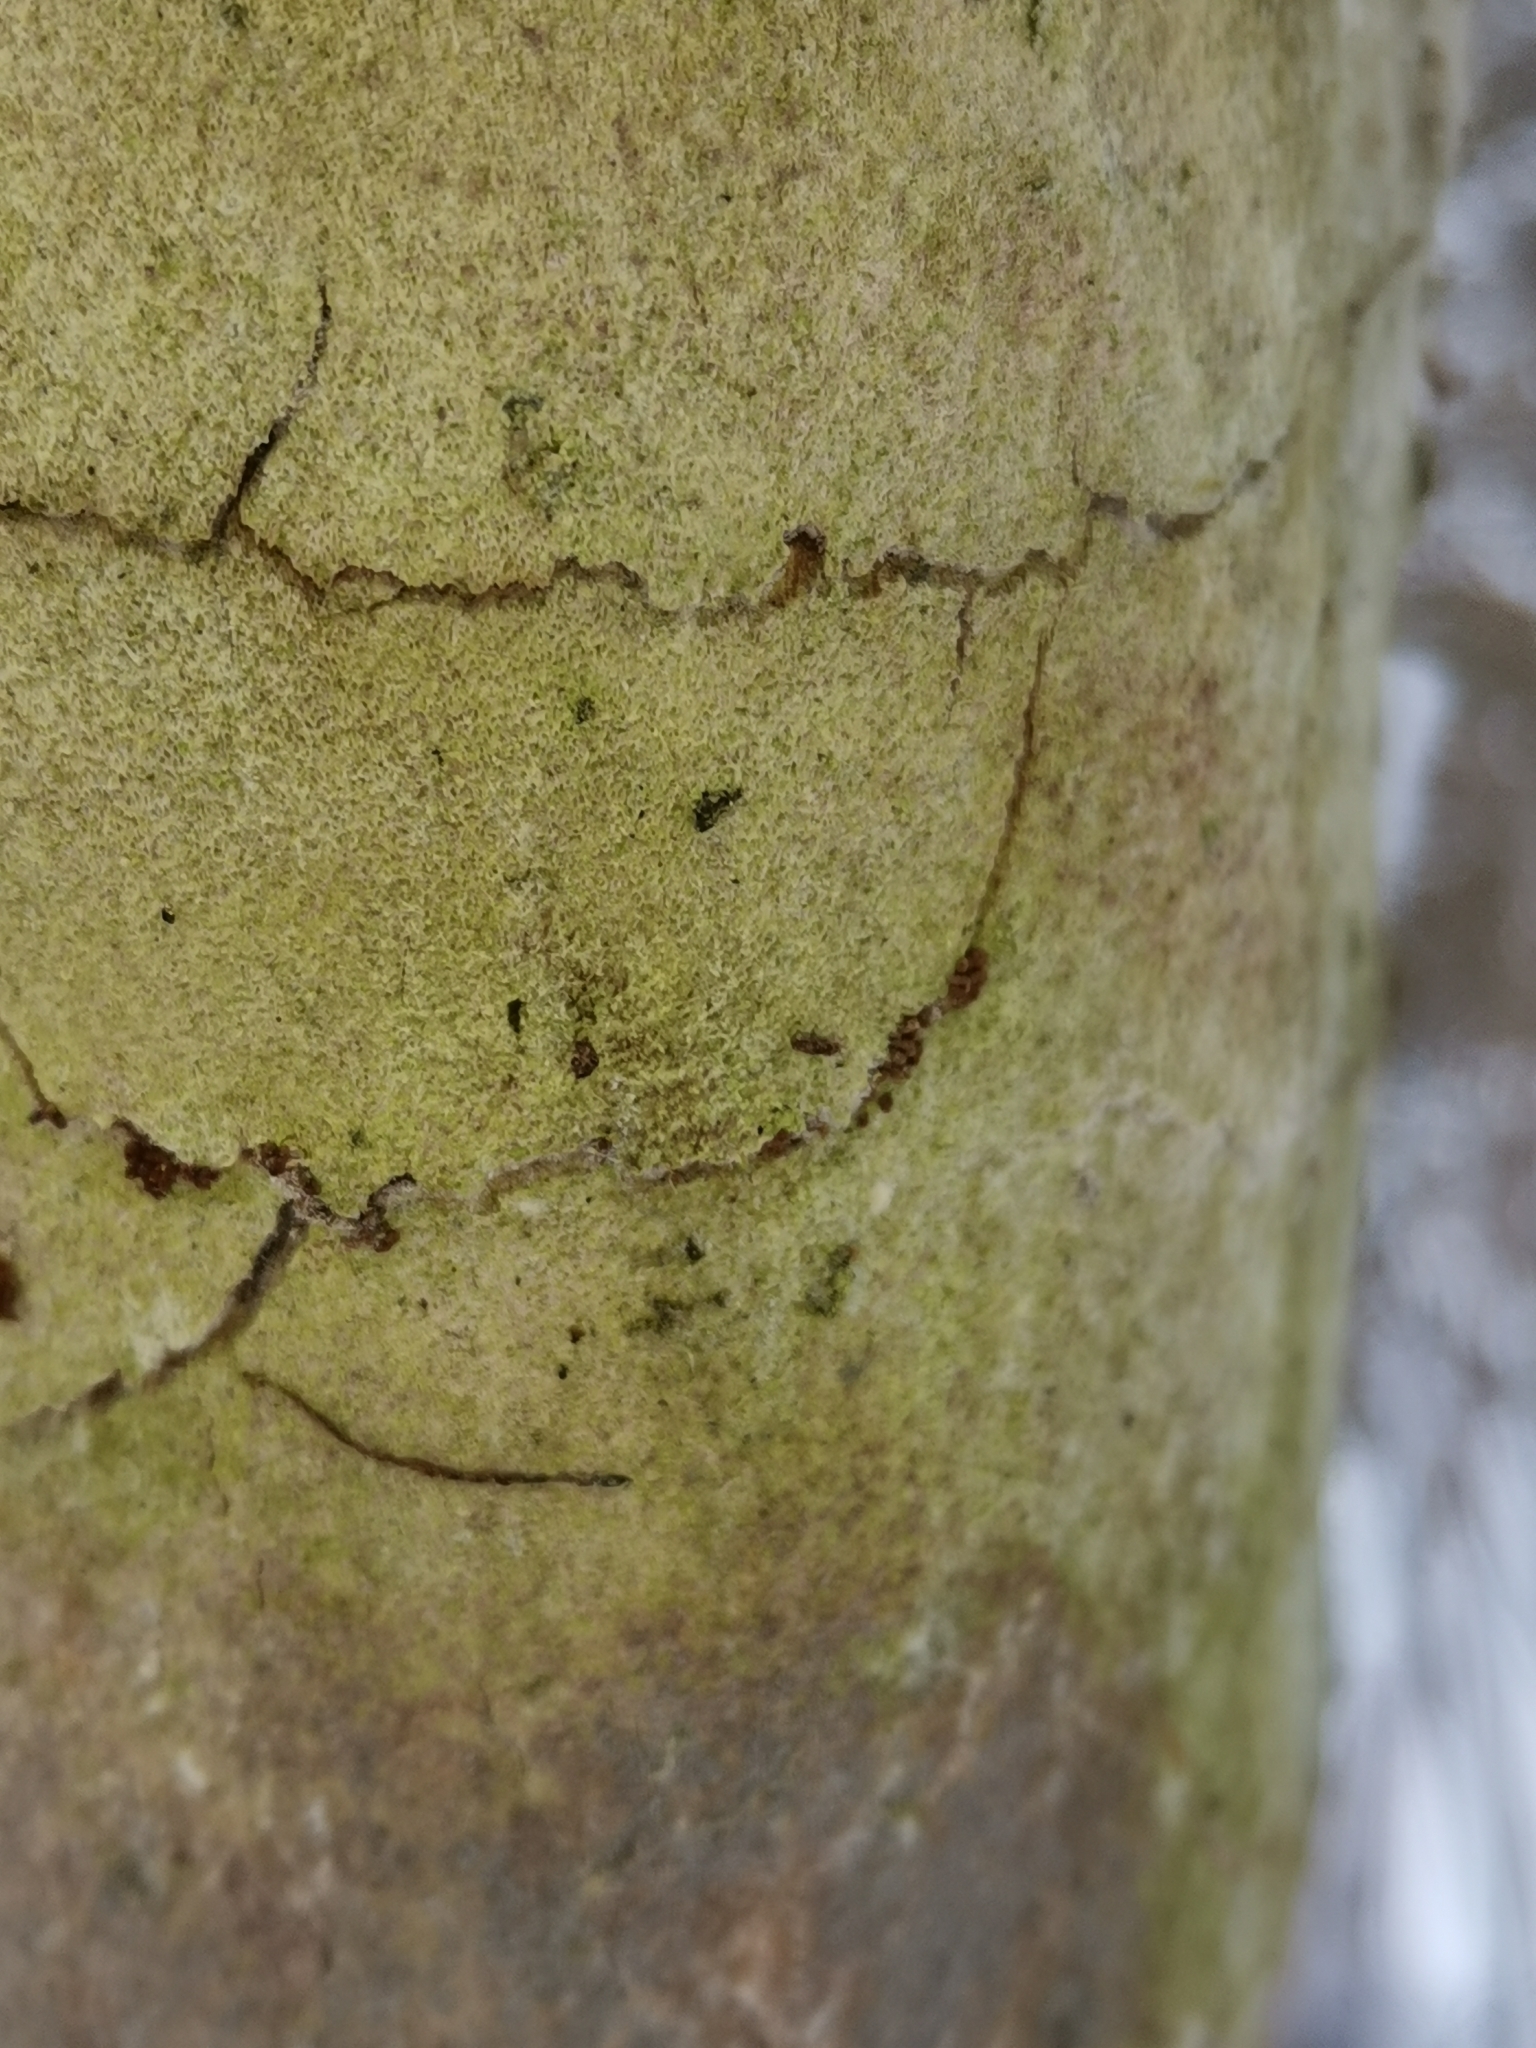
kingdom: Fungi
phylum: Basidiomycota
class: Agaricomycetes
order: Hymenochaetales
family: Hymenochaetaceae
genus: Fomitiporia
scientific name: Fomitiporia punctata
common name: Elbowpatch crust
